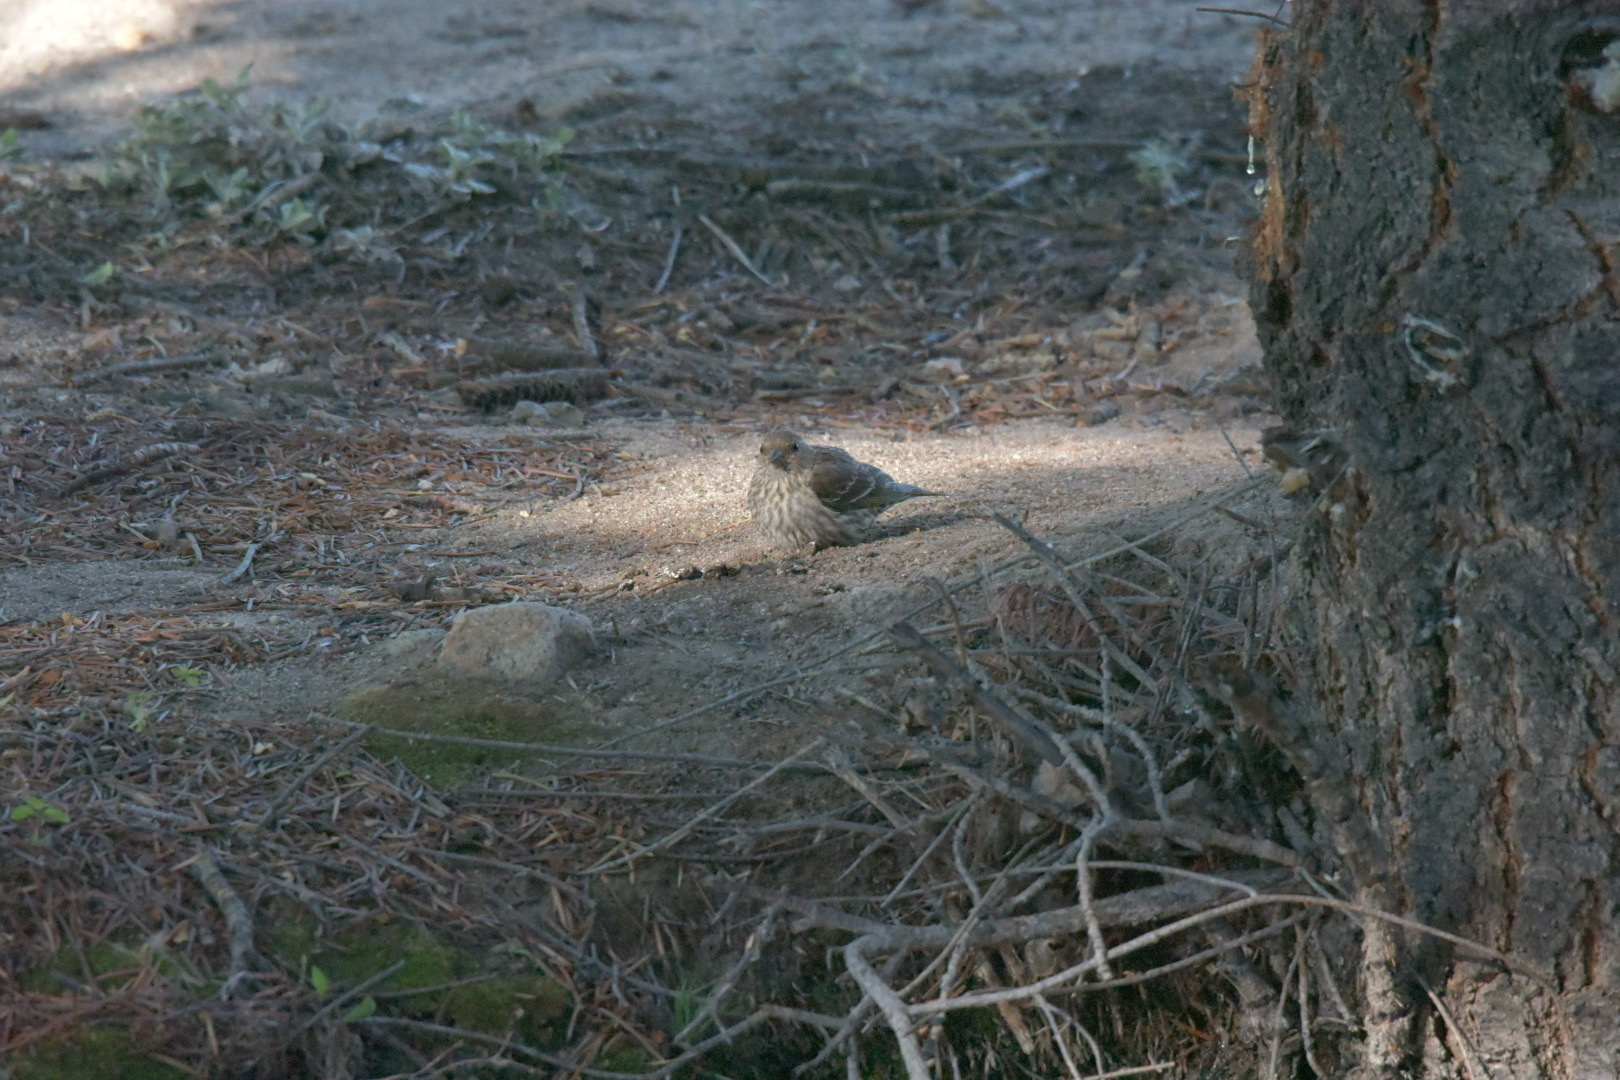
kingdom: Animalia
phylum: Chordata
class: Aves
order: Passeriformes
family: Fringillidae
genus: Spinus
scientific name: Spinus pinus
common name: Pine siskin
